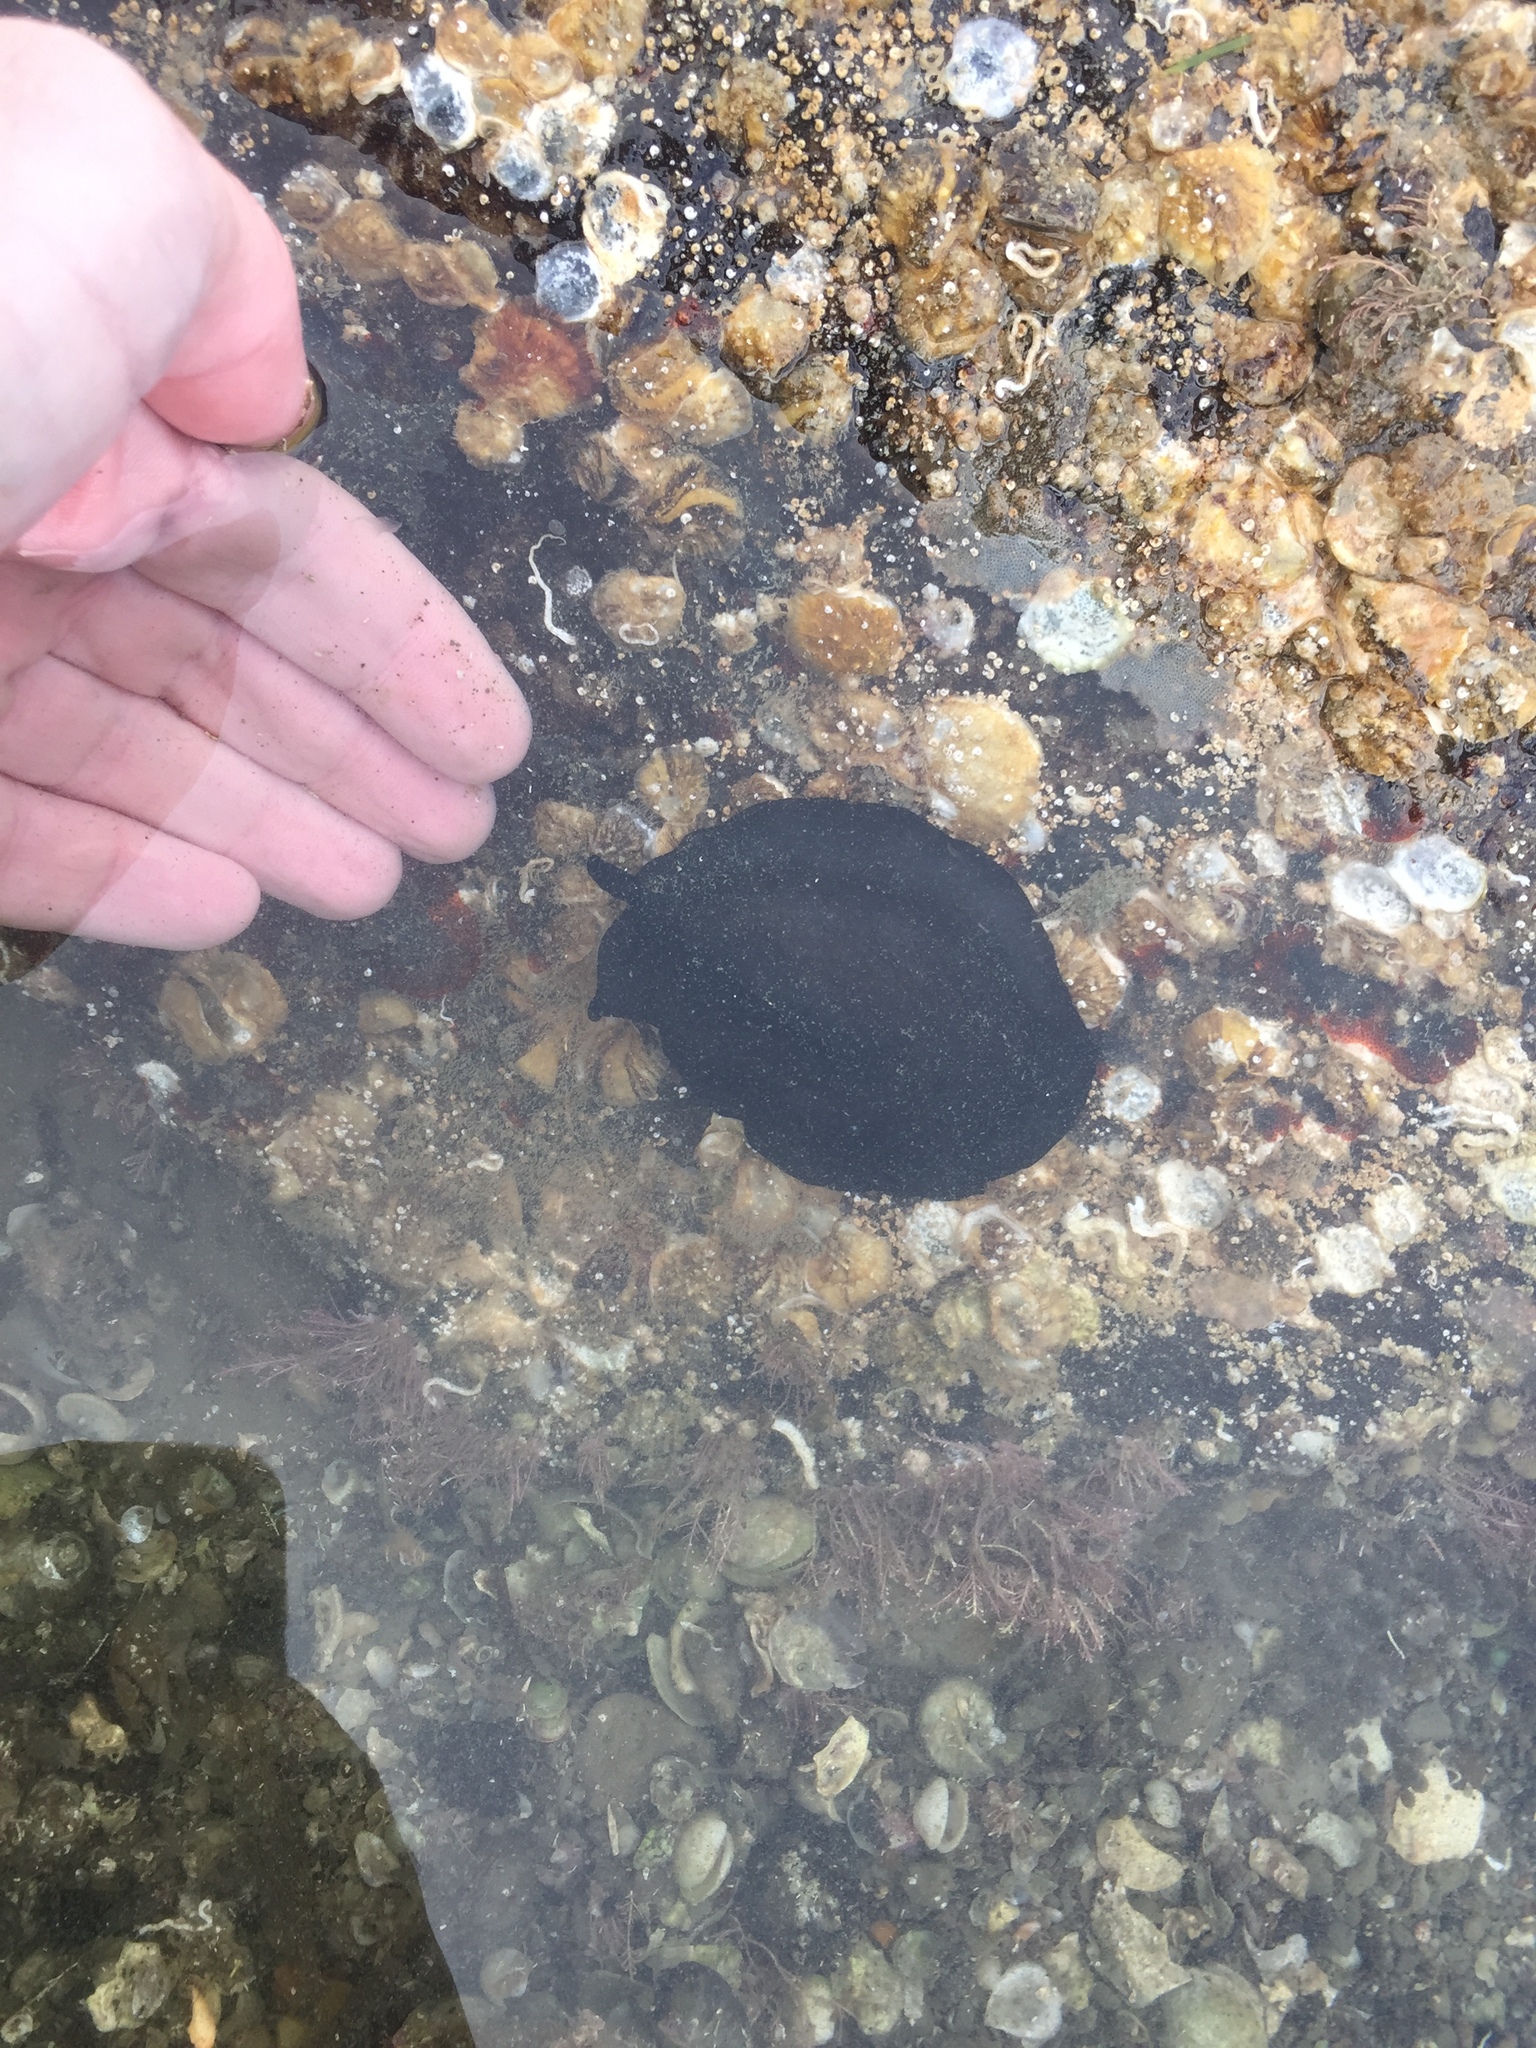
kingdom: Animalia
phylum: Mollusca
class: Gastropoda
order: Lepetellida
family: Fissurellidae
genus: Scutus
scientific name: Scutus breviculus
